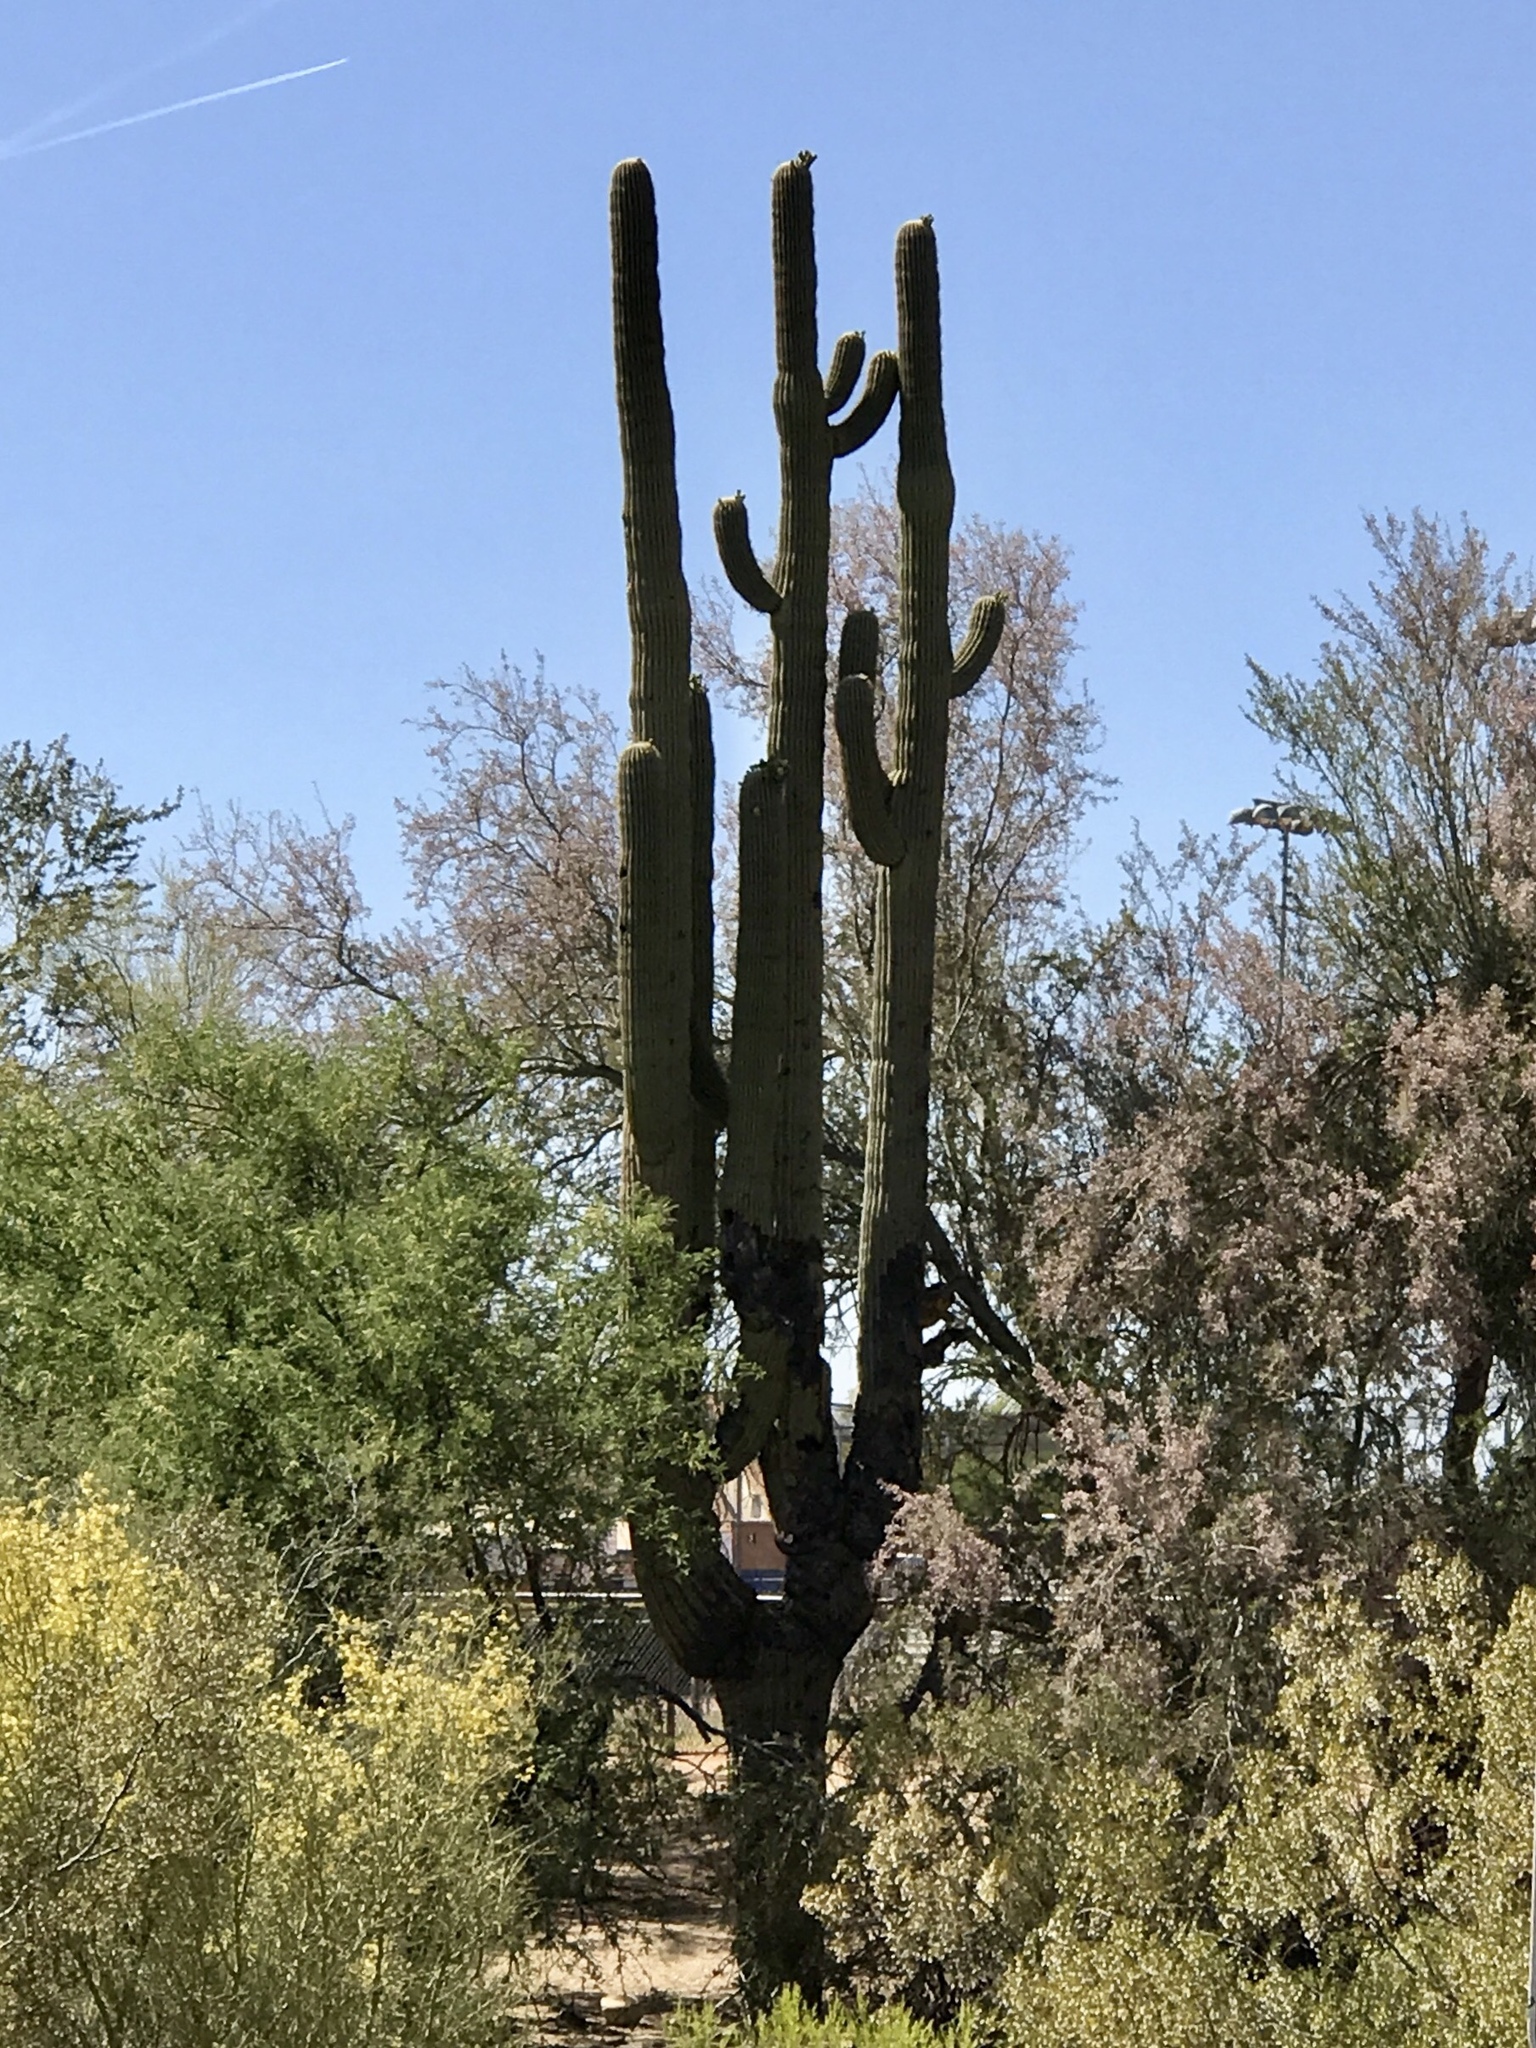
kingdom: Plantae
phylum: Tracheophyta
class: Magnoliopsida
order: Caryophyllales
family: Cactaceae
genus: Carnegiea
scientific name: Carnegiea gigantea
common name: Saguaro
